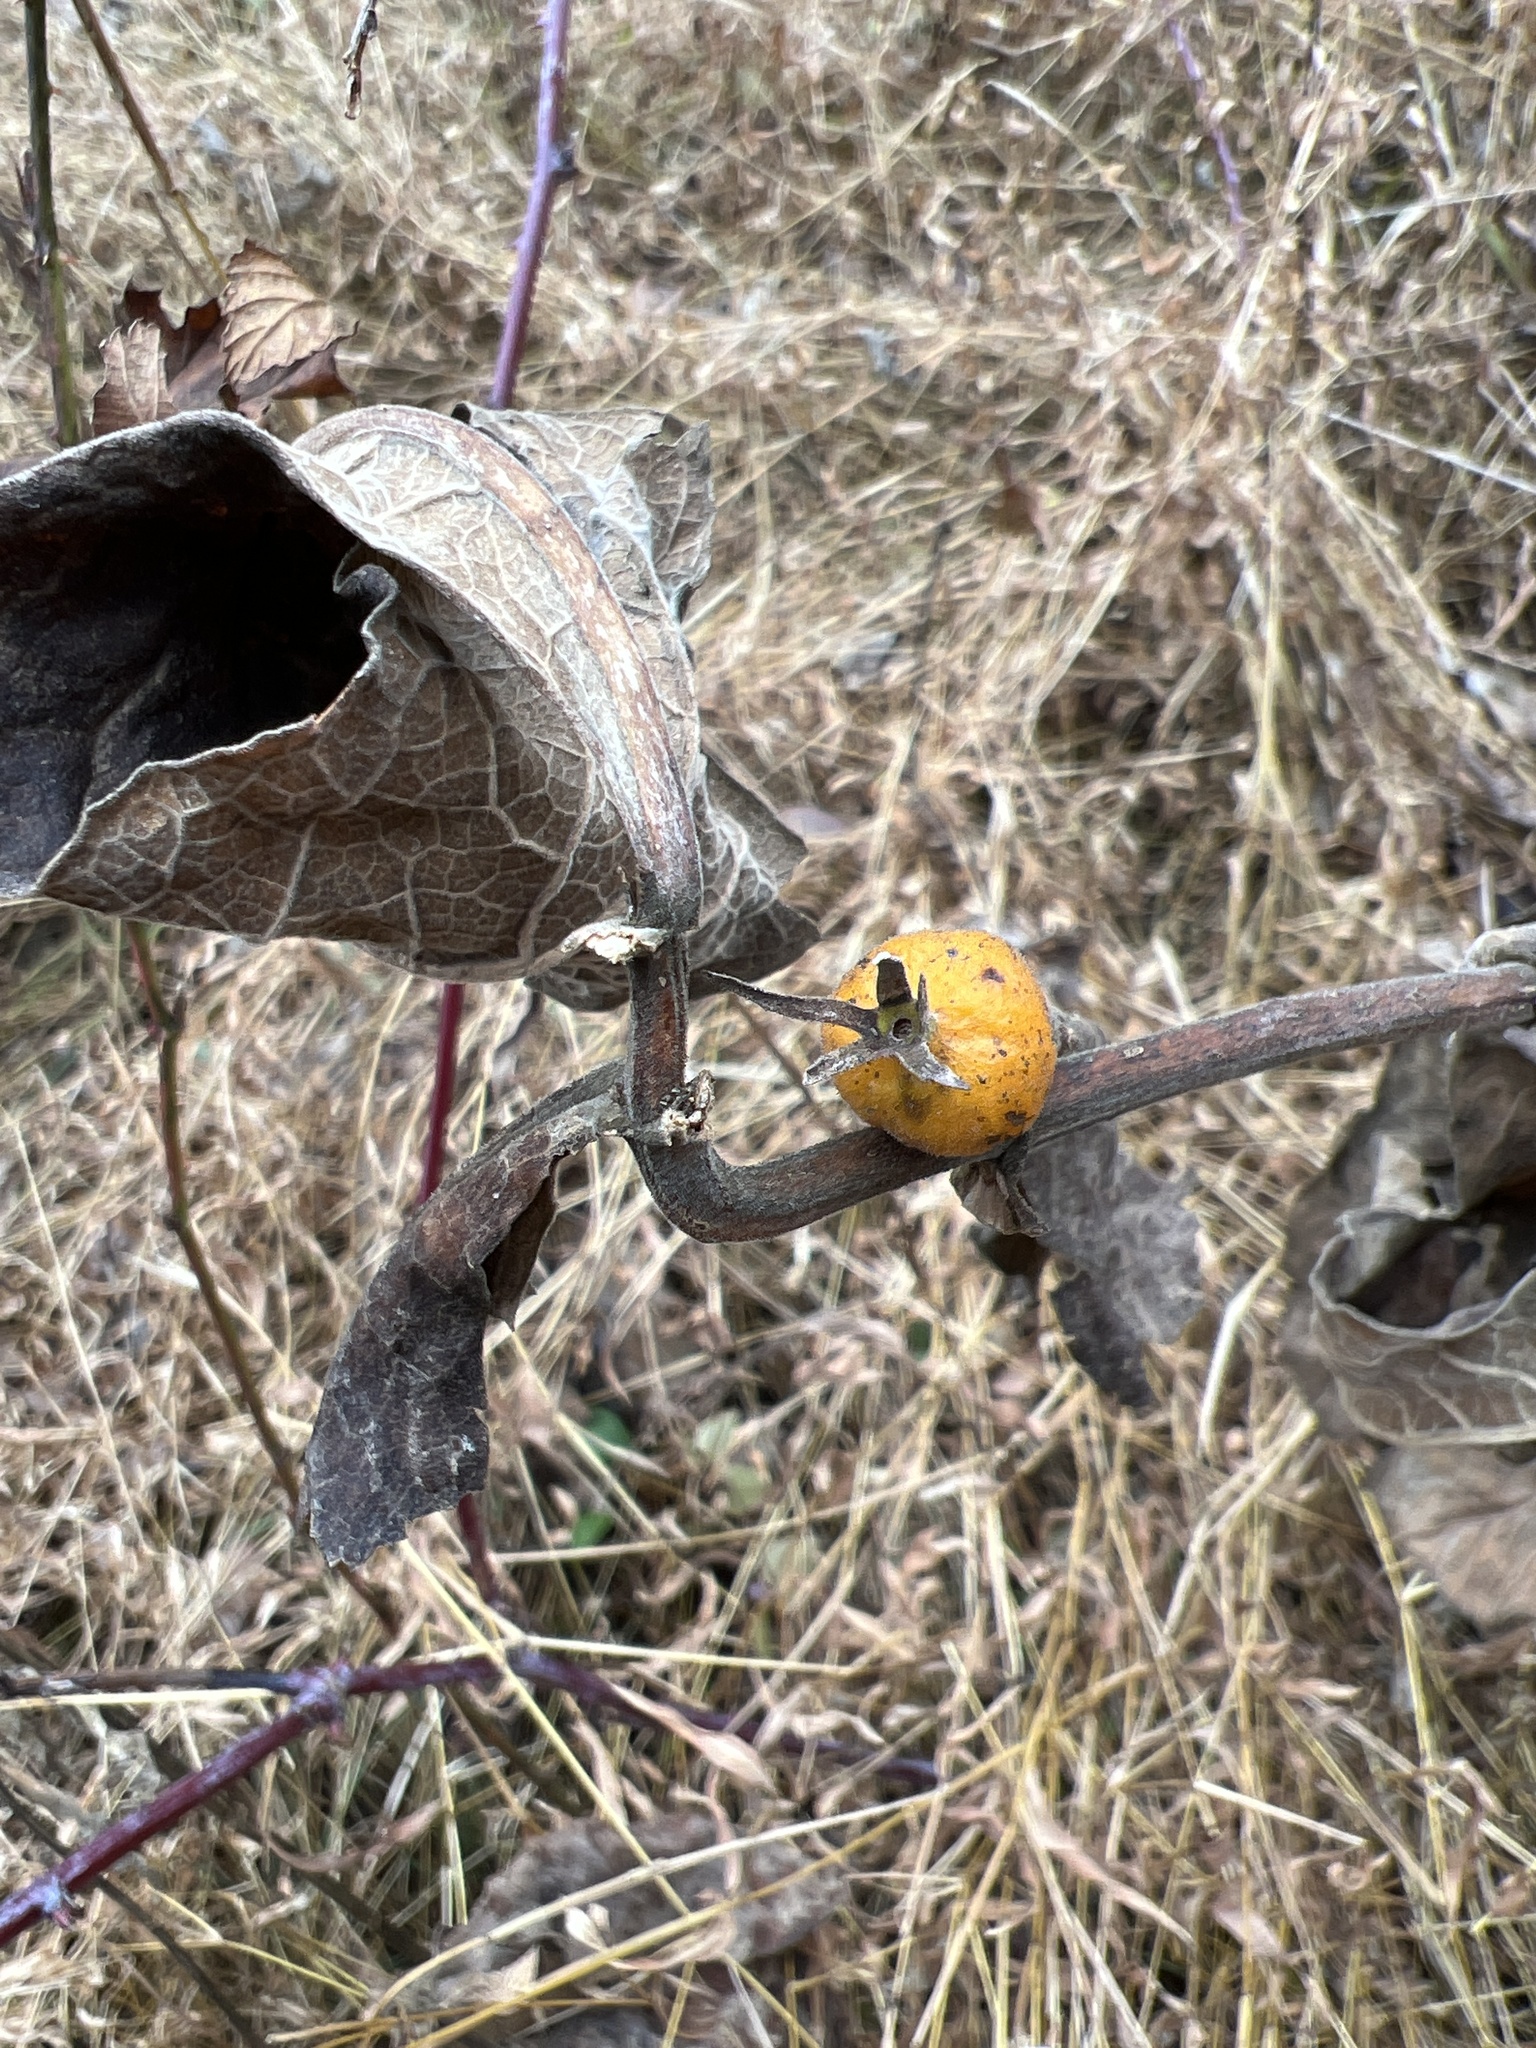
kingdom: Plantae
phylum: Tracheophyta
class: Magnoliopsida
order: Dipsacales
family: Caprifoliaceae
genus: Triosteum
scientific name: Triosteum perfoliatum
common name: Common horse-gentian
